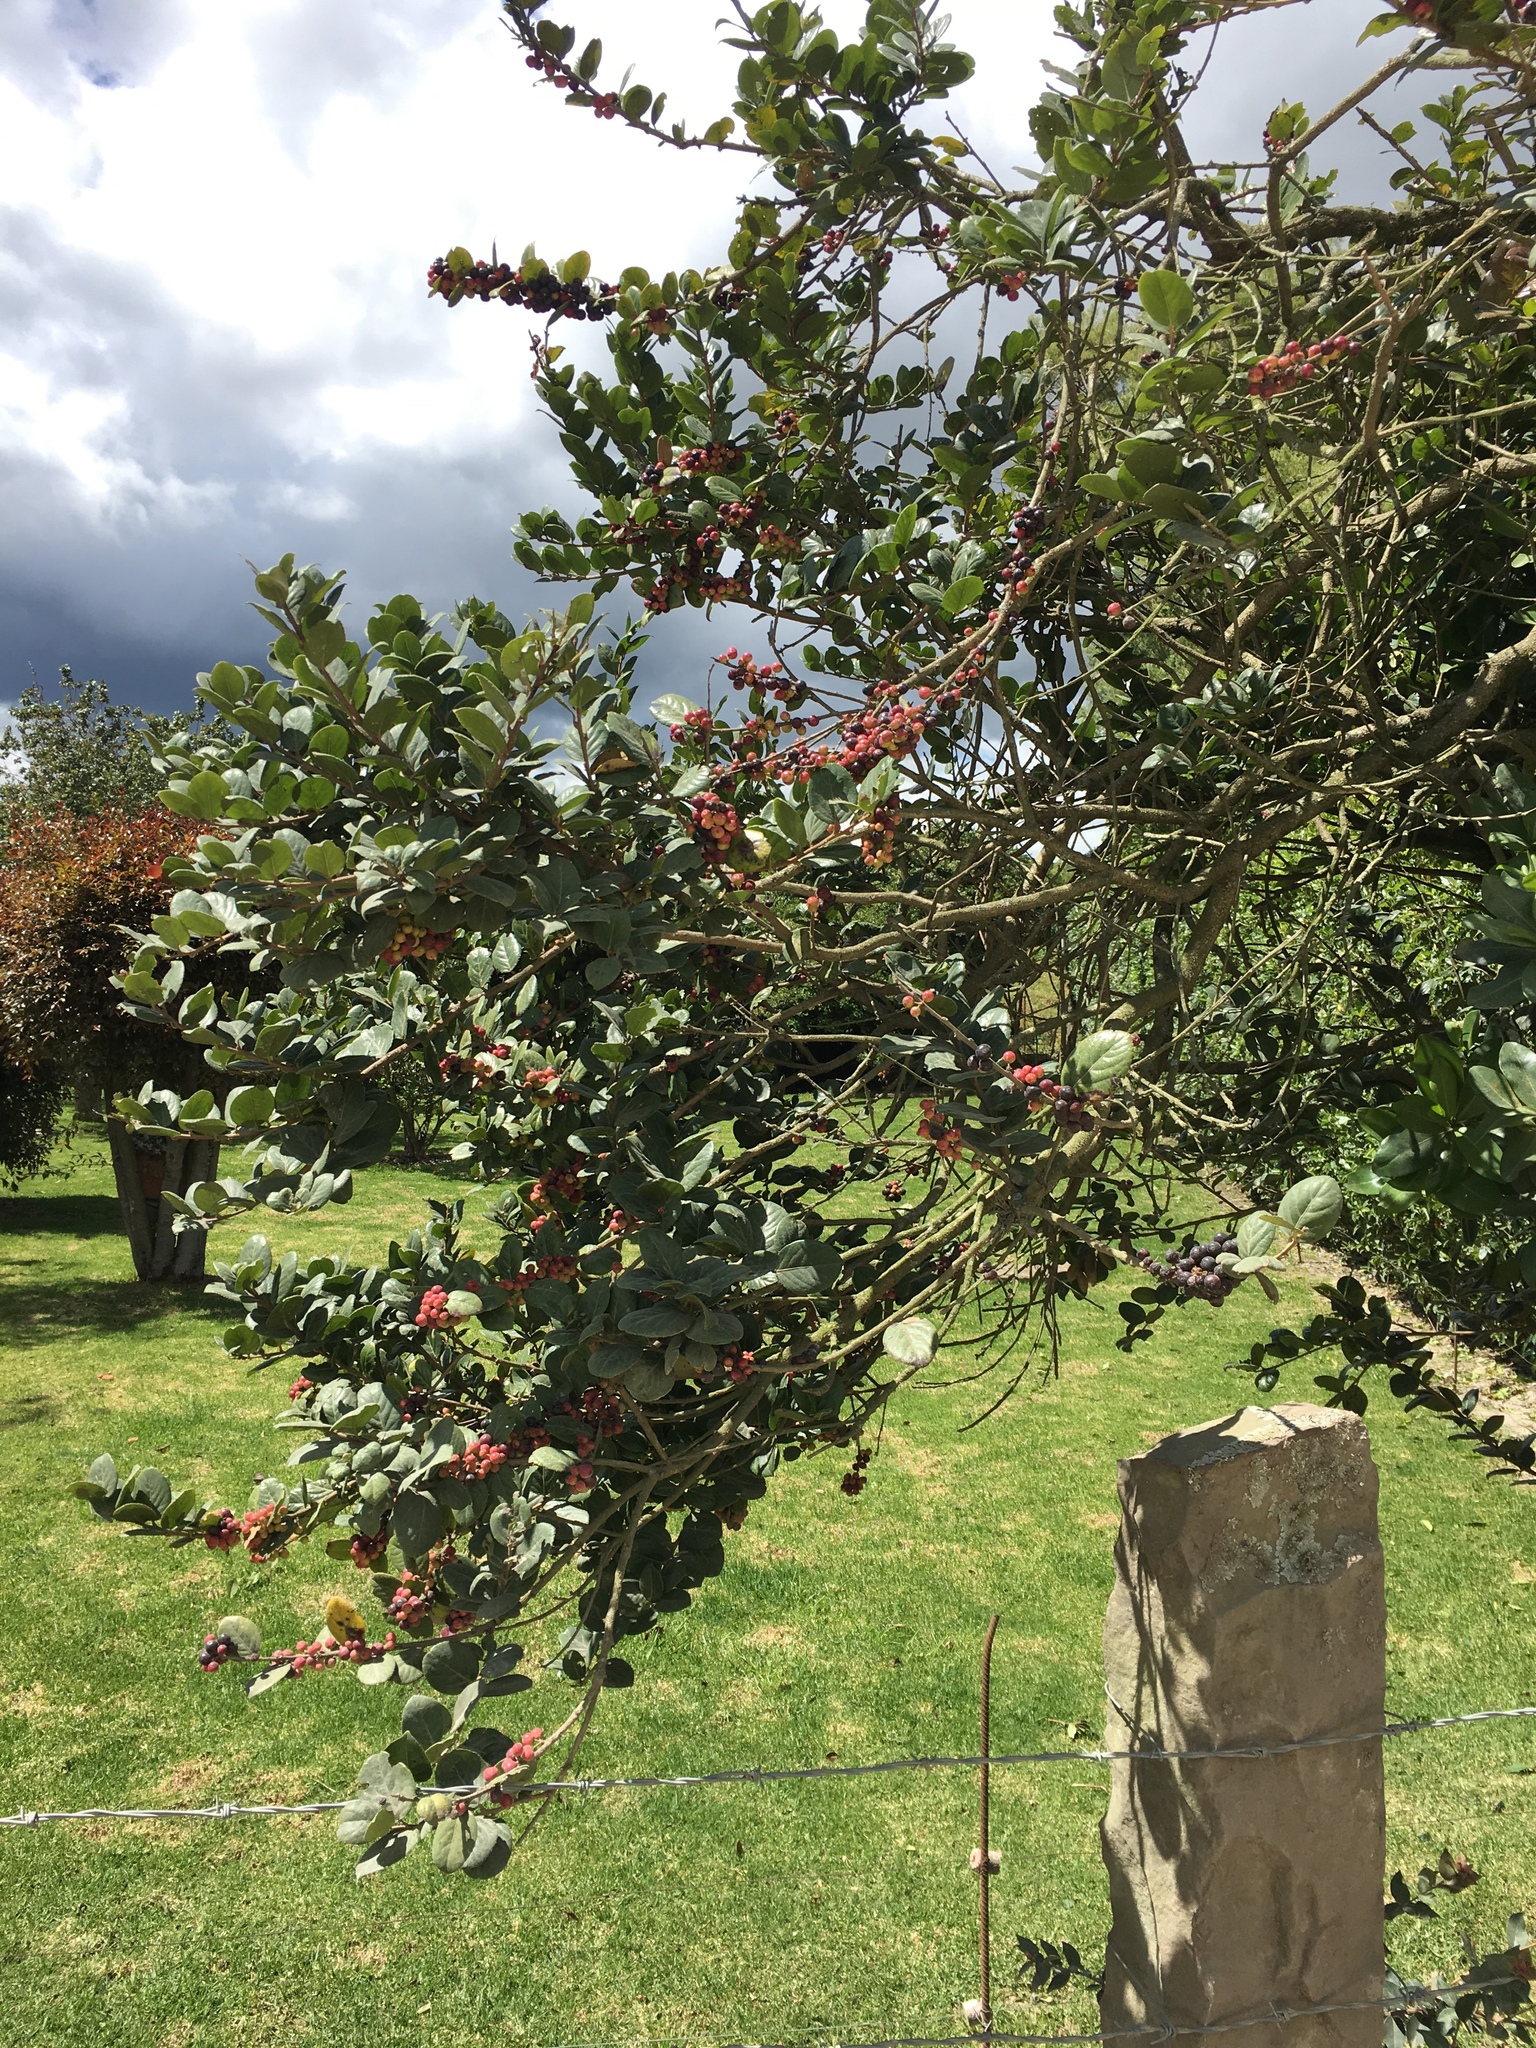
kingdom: Plantae
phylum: Tracheophyta
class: Magnoliopsida
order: Malpighiales
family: Salicaceae
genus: Xylosma
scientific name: Xylosma spiculifera
